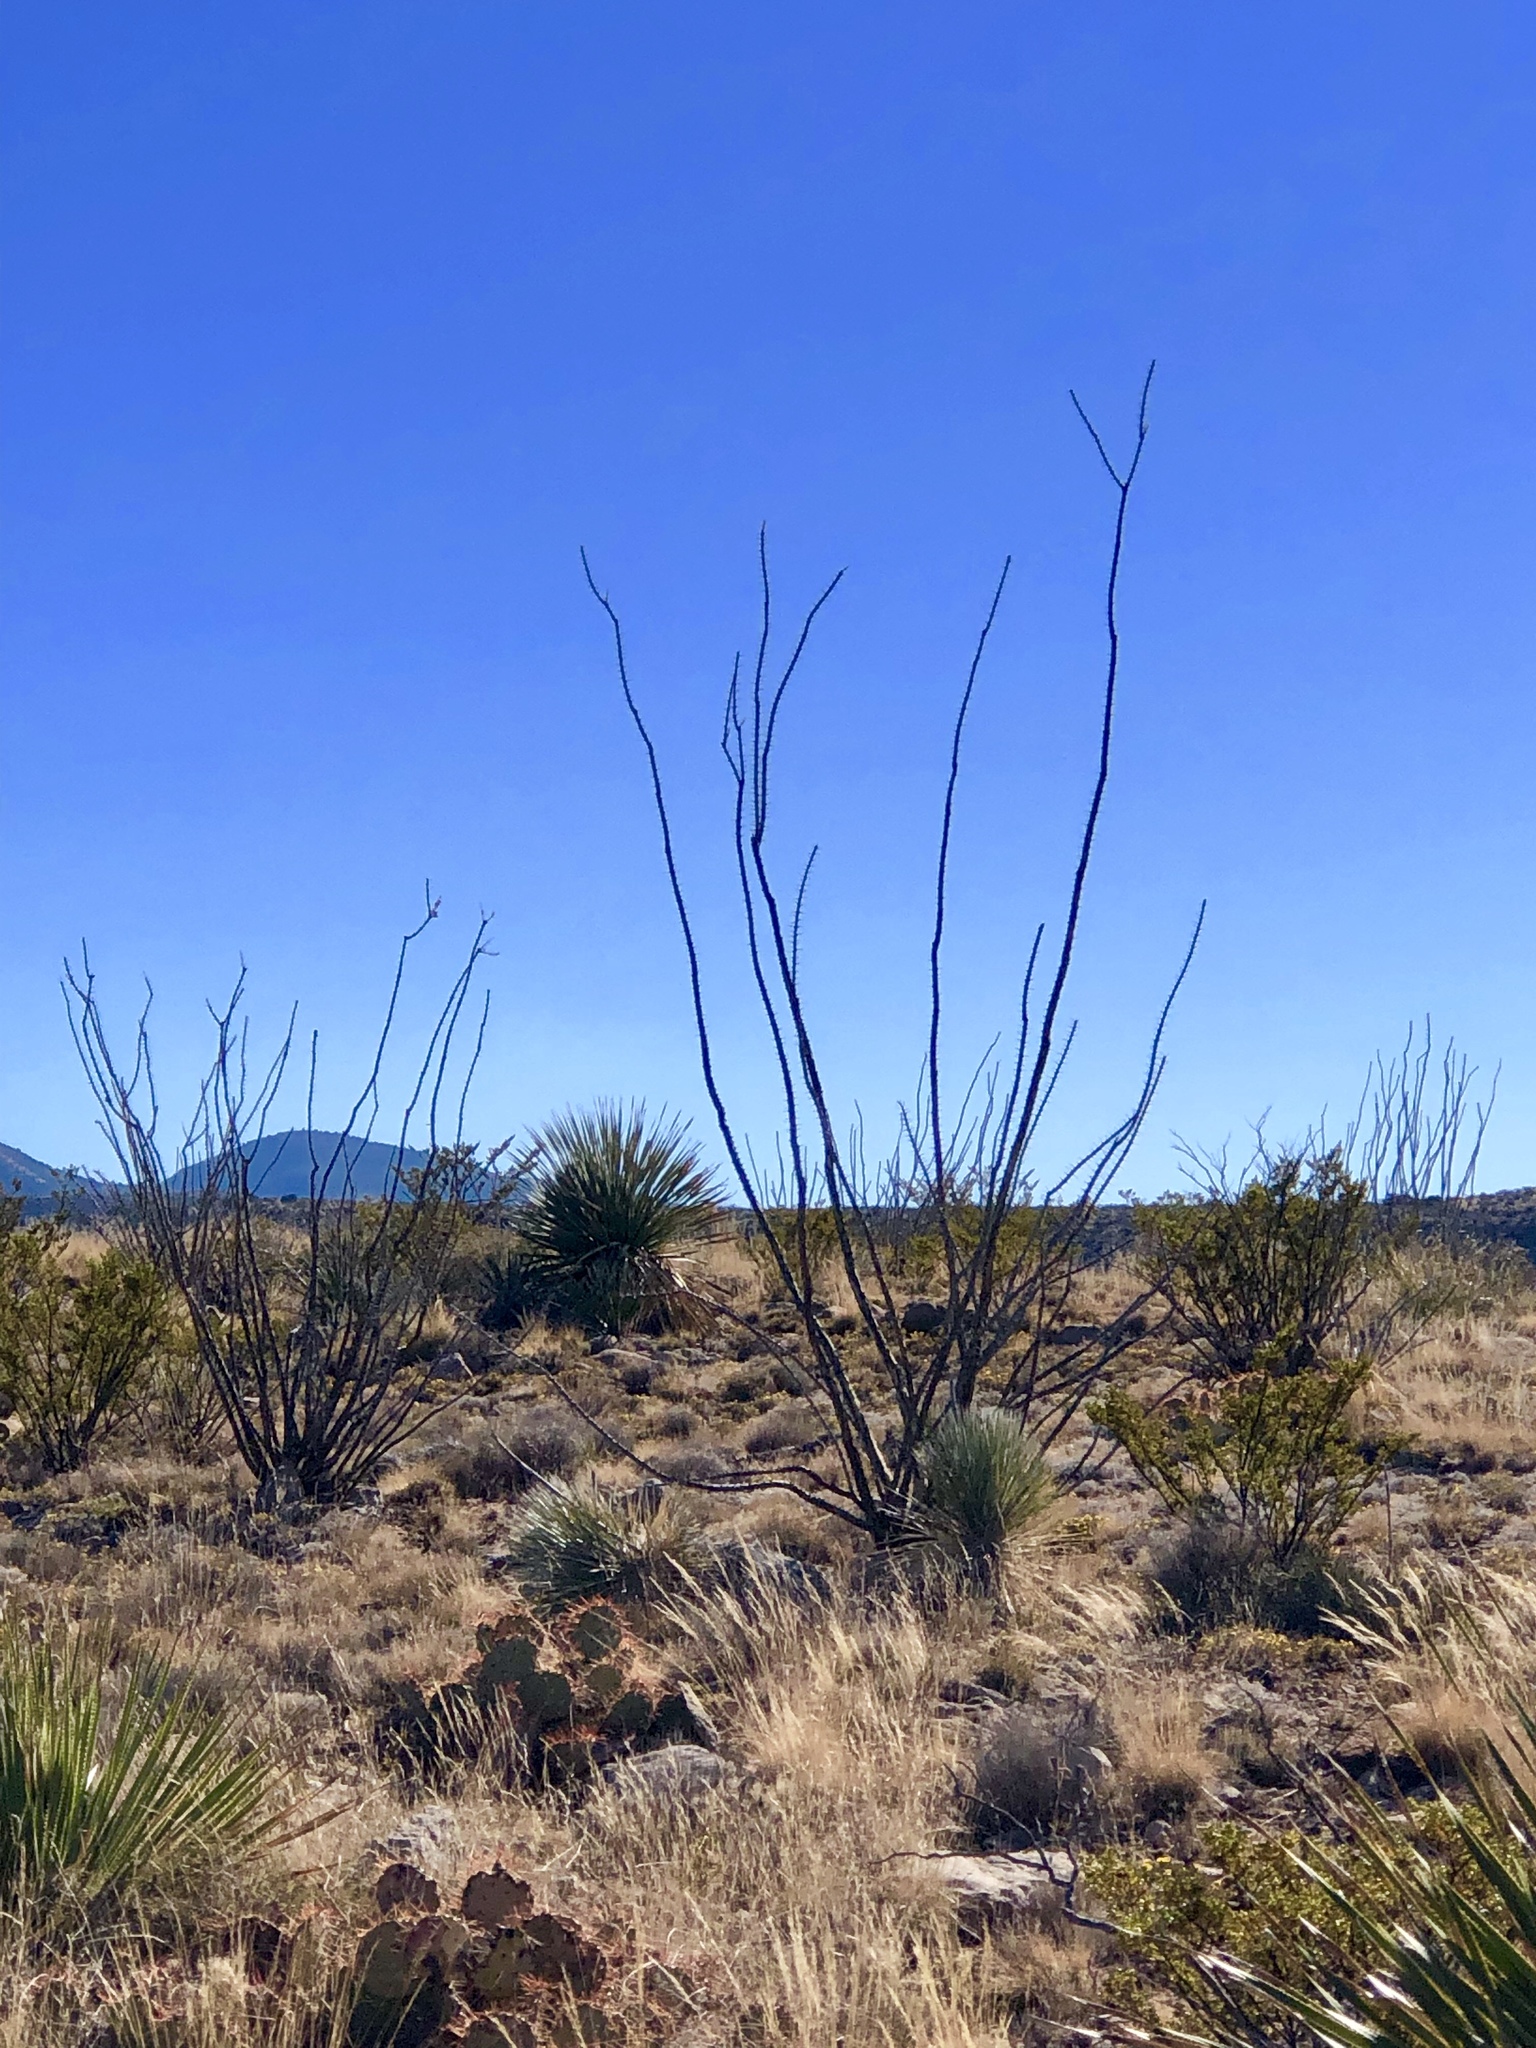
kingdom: Plantae
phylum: Tracheophyta
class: Magnoliopsida
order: Ericales
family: Fouquieriaceae
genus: Fouquieria
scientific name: Fouquieria splendens
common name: Vine-cactus
